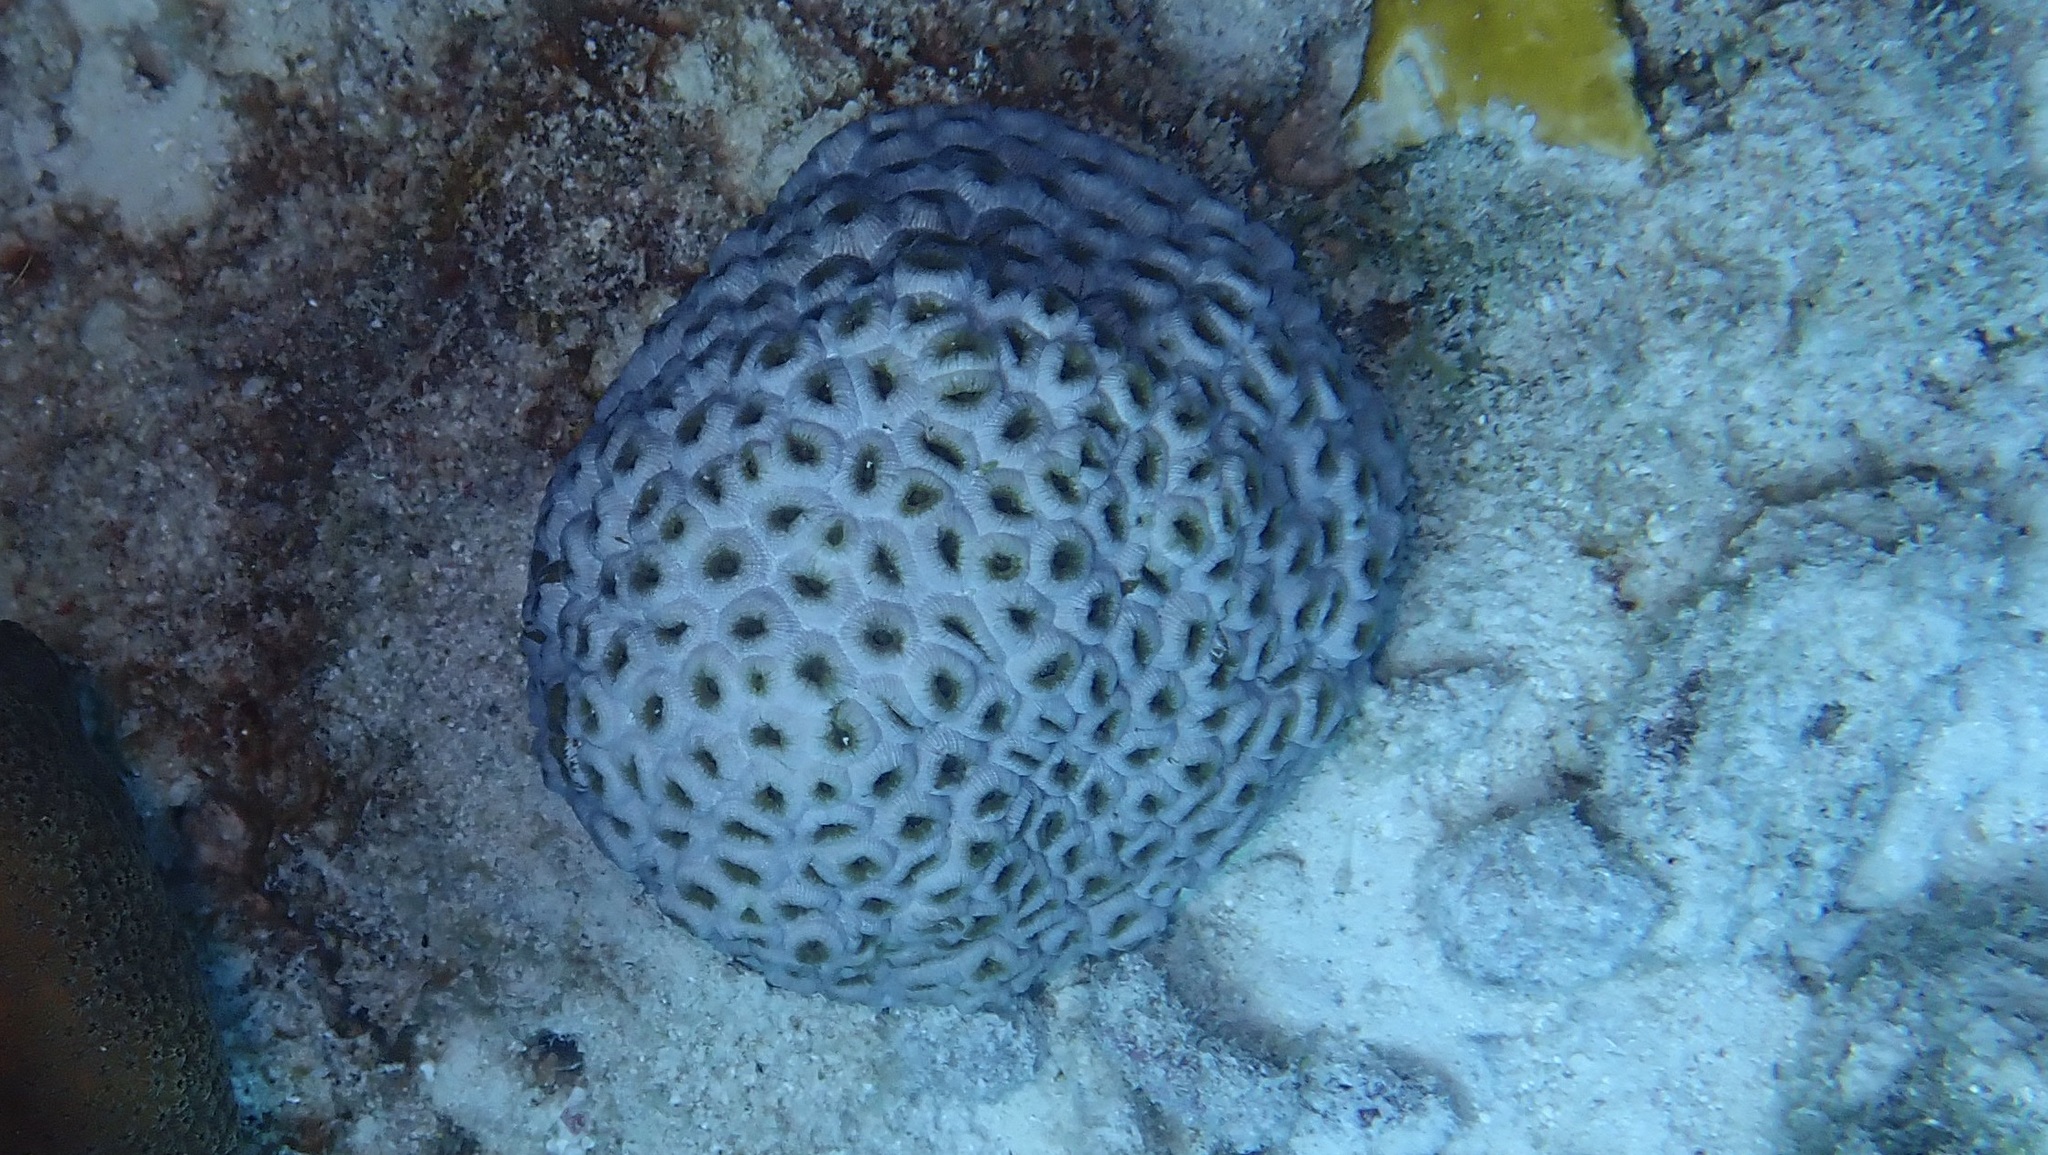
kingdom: Animalia
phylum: Cnidaria
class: Anthozoa
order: Scleractinia
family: Montastraeidae
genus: Montastraea
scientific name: Montastraea cavernosa
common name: Great star coral
